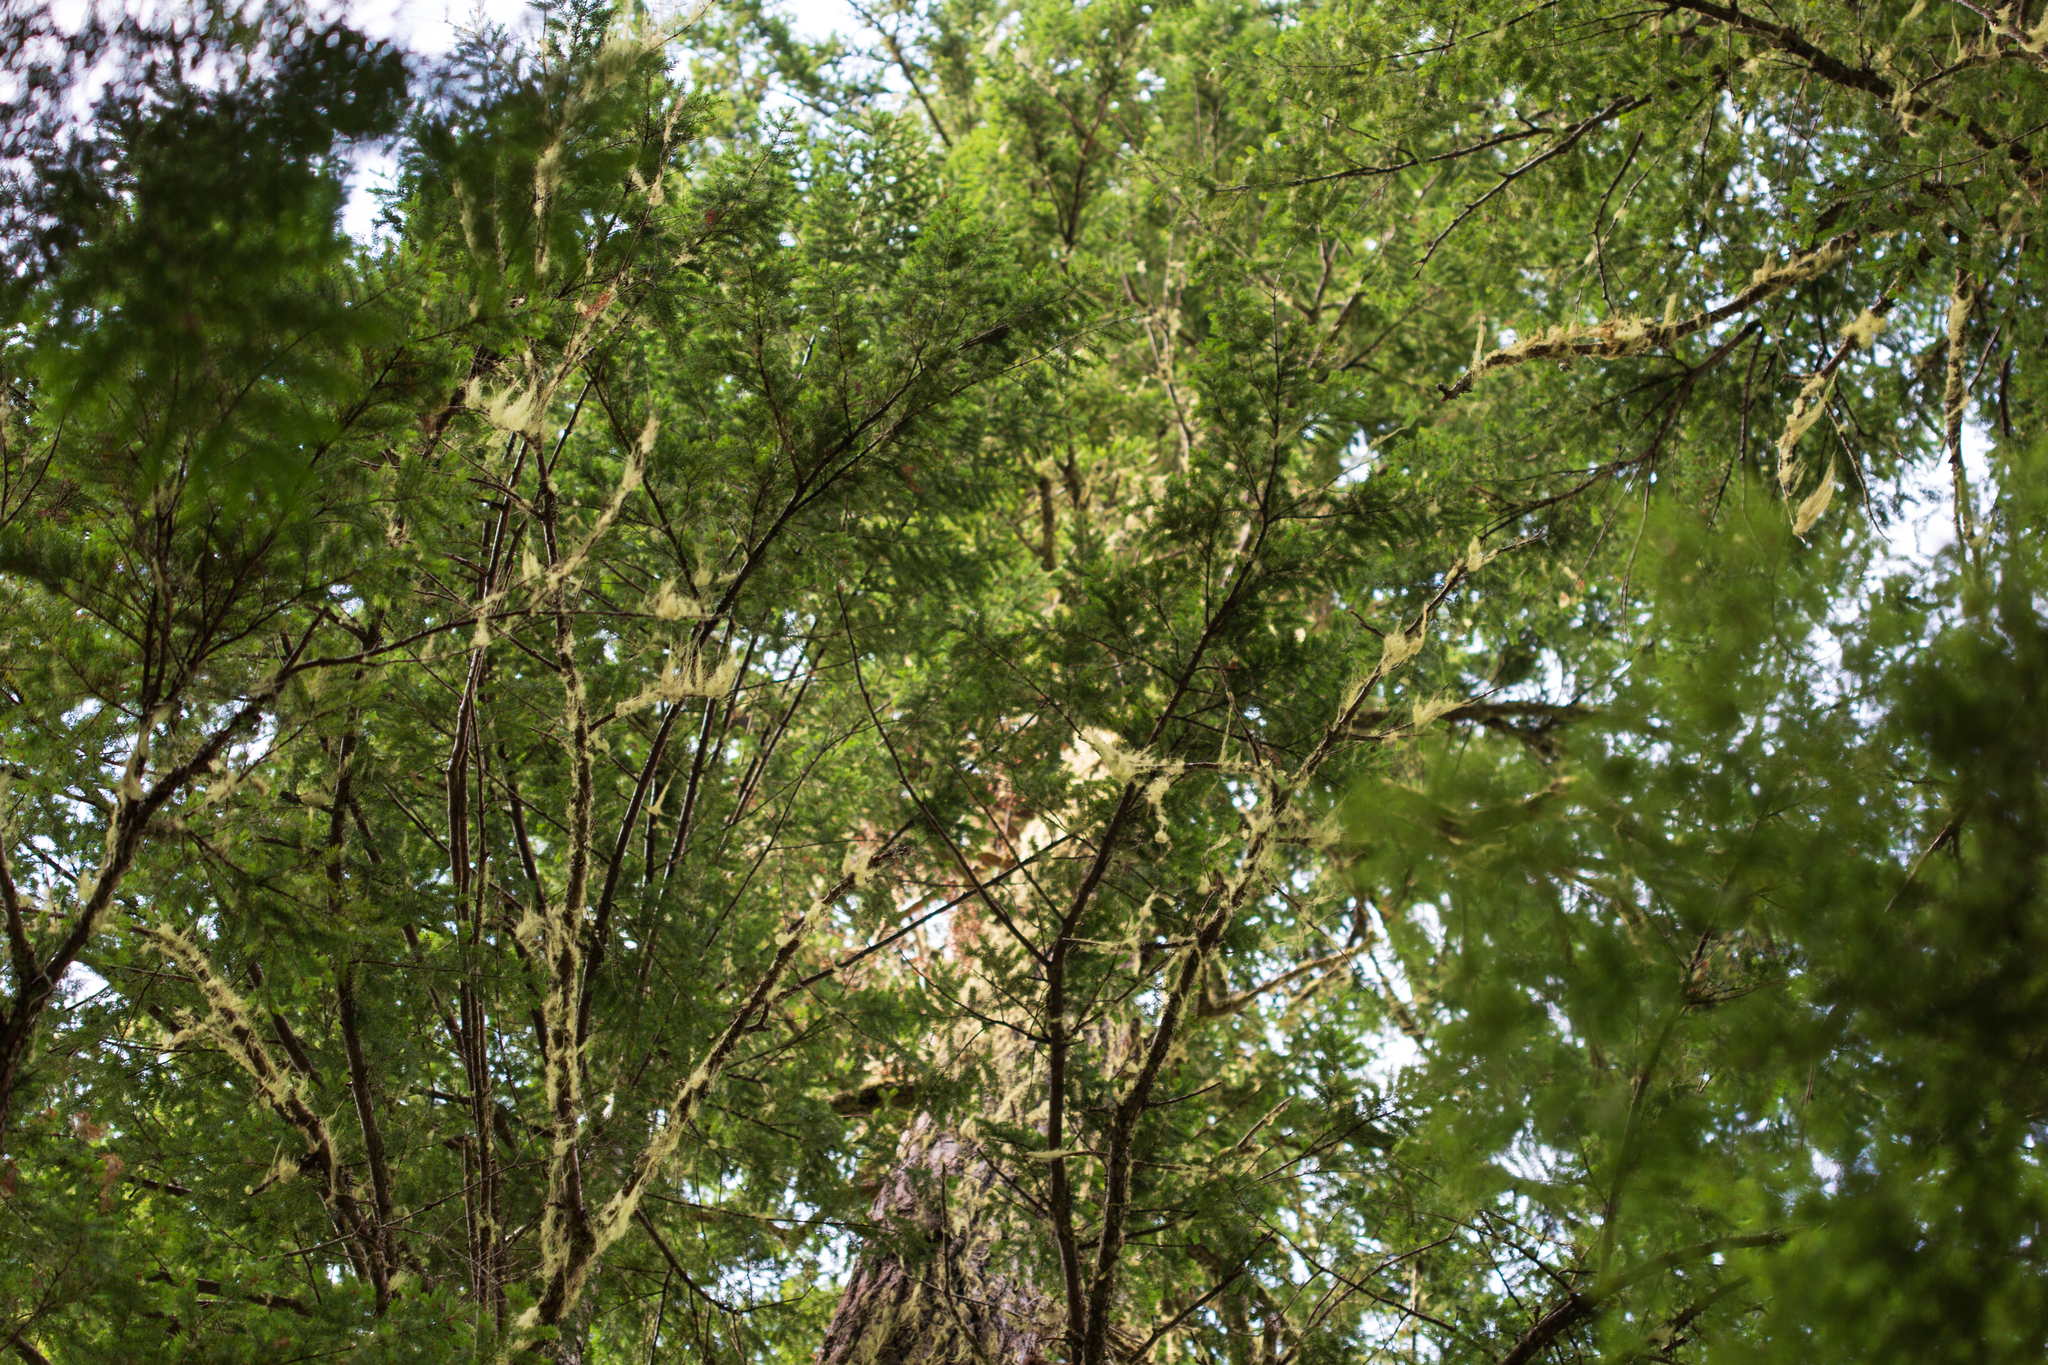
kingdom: Plantae
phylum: Tracheophyta
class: Pinopsida
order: Pinales
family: Pinaceae
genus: Pseudotsuga
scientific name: Pseudotsuga menziesii
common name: Douglas fir
